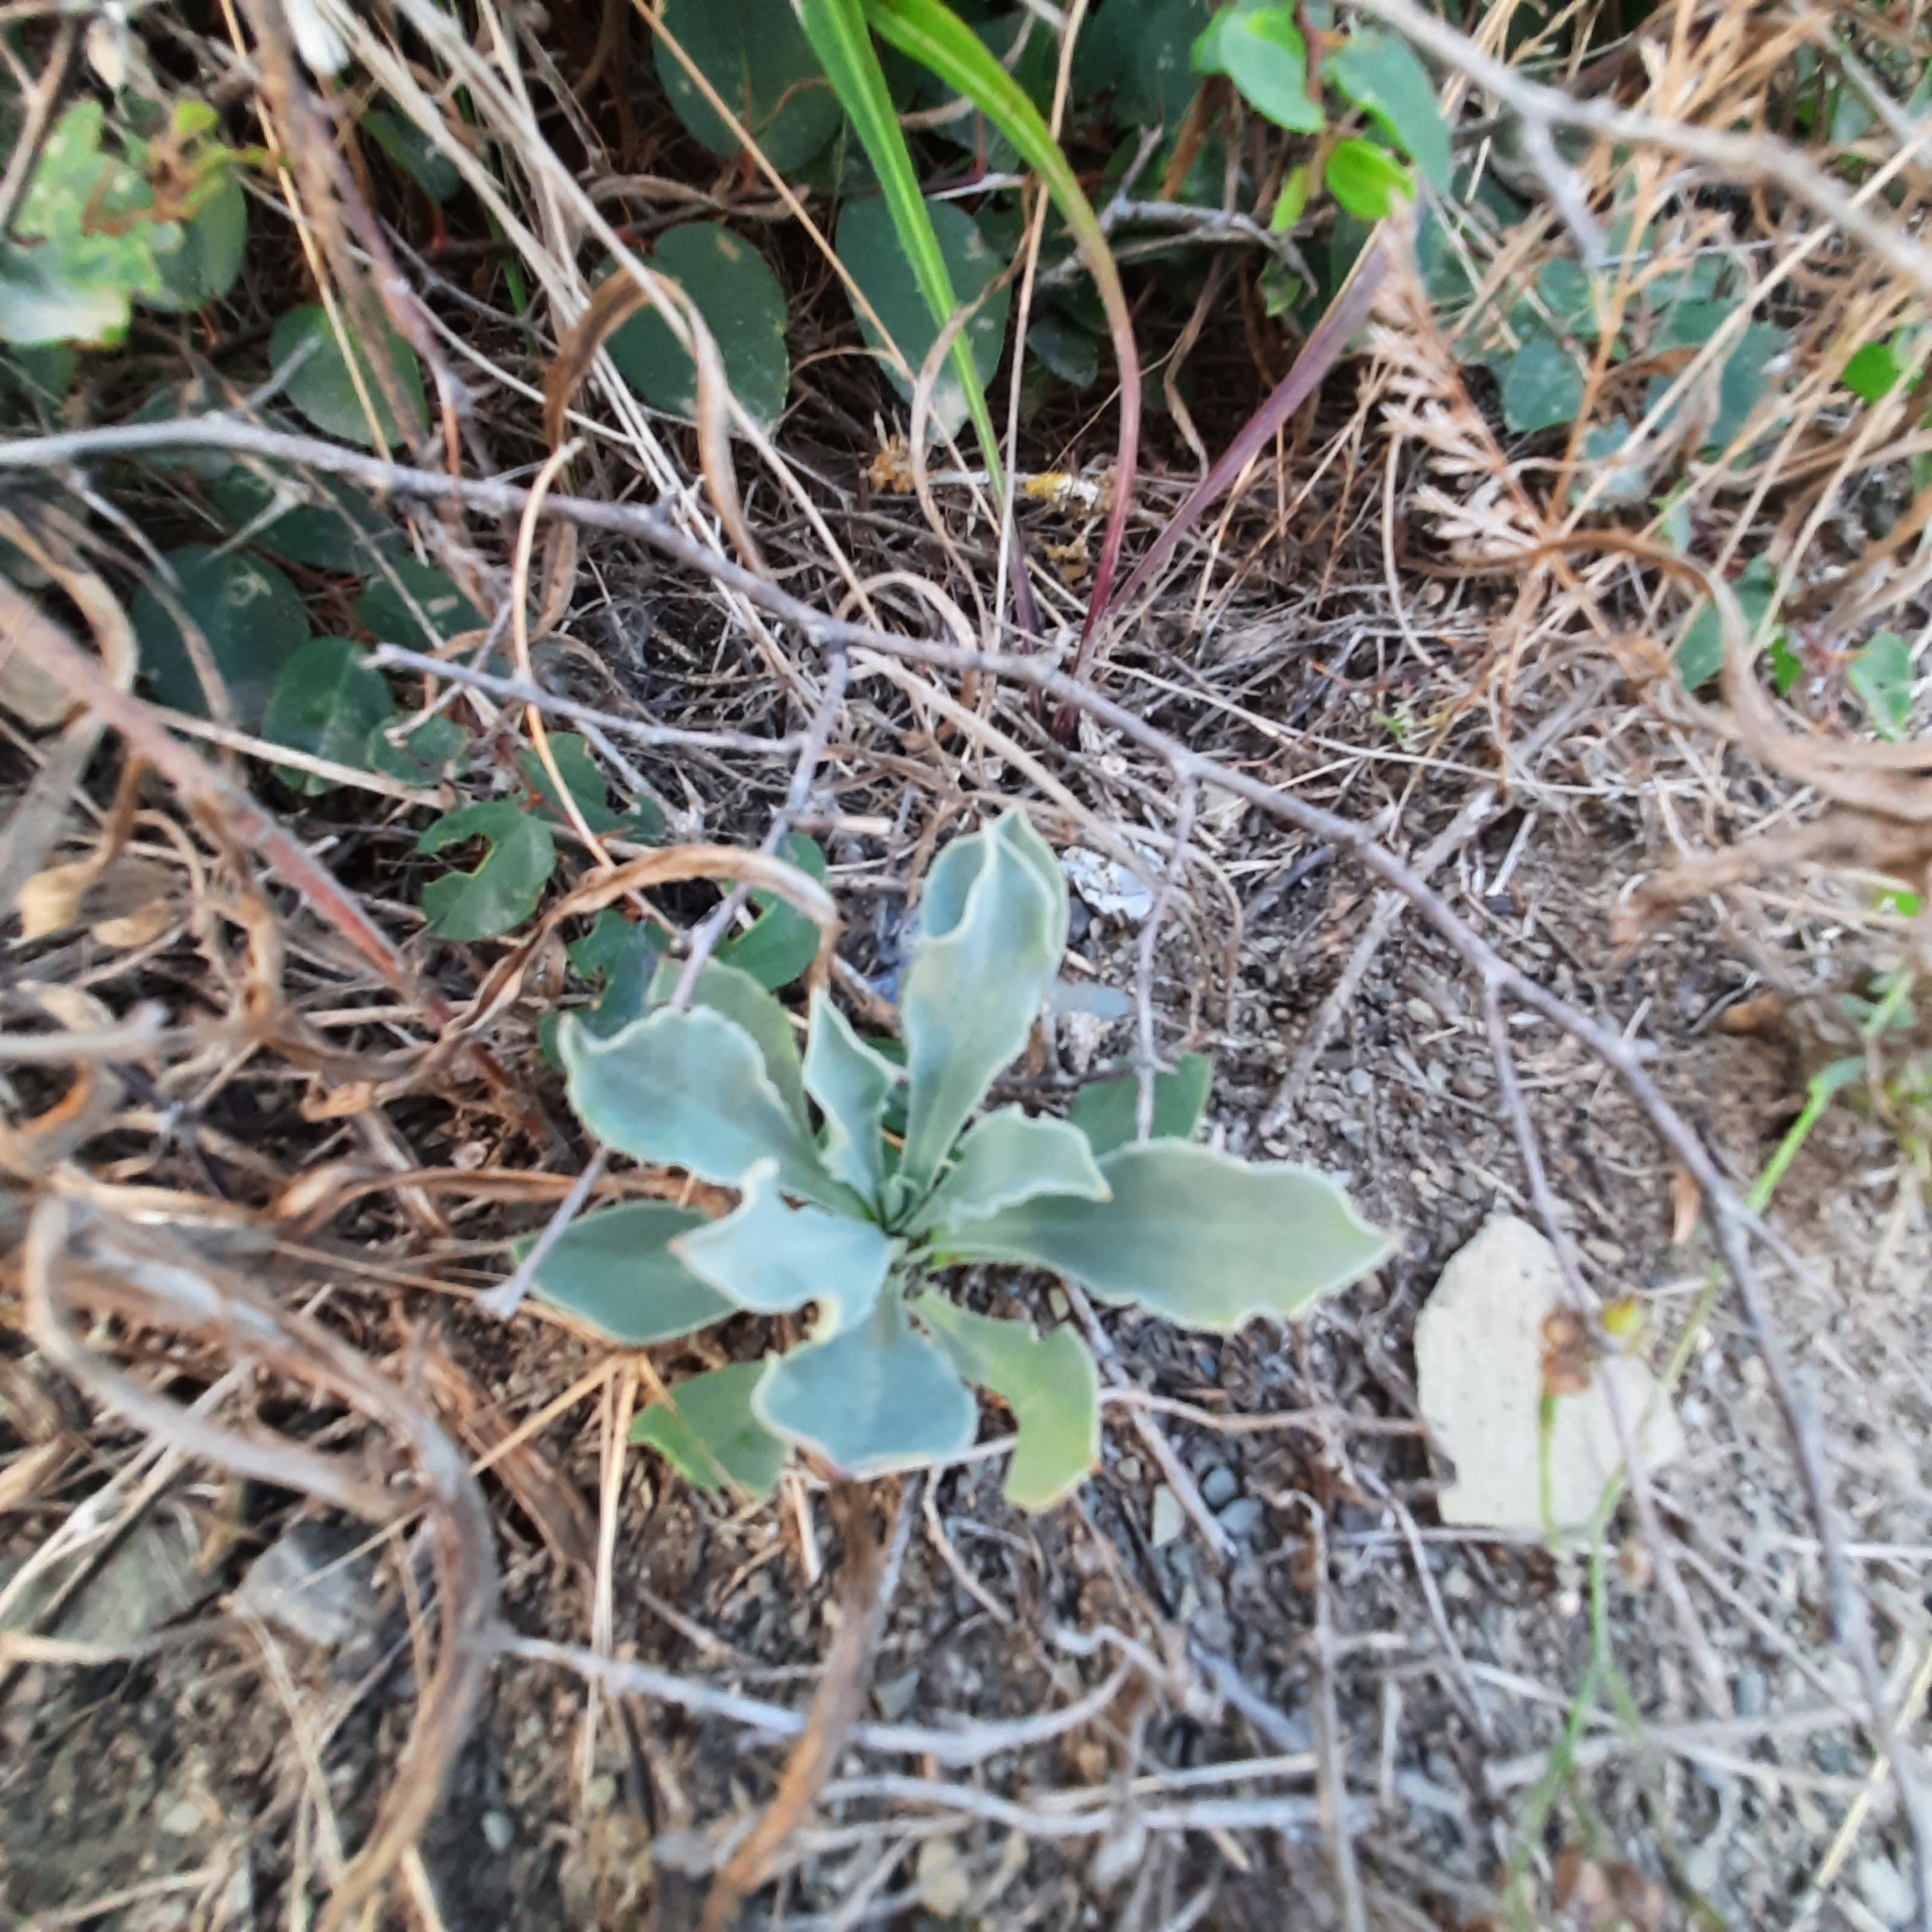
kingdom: Plantae
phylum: Tracheophyta
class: Magnoliopsida
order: Caryophyllales
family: Caryophyllaceae
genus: Silene
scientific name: Silene crispata
